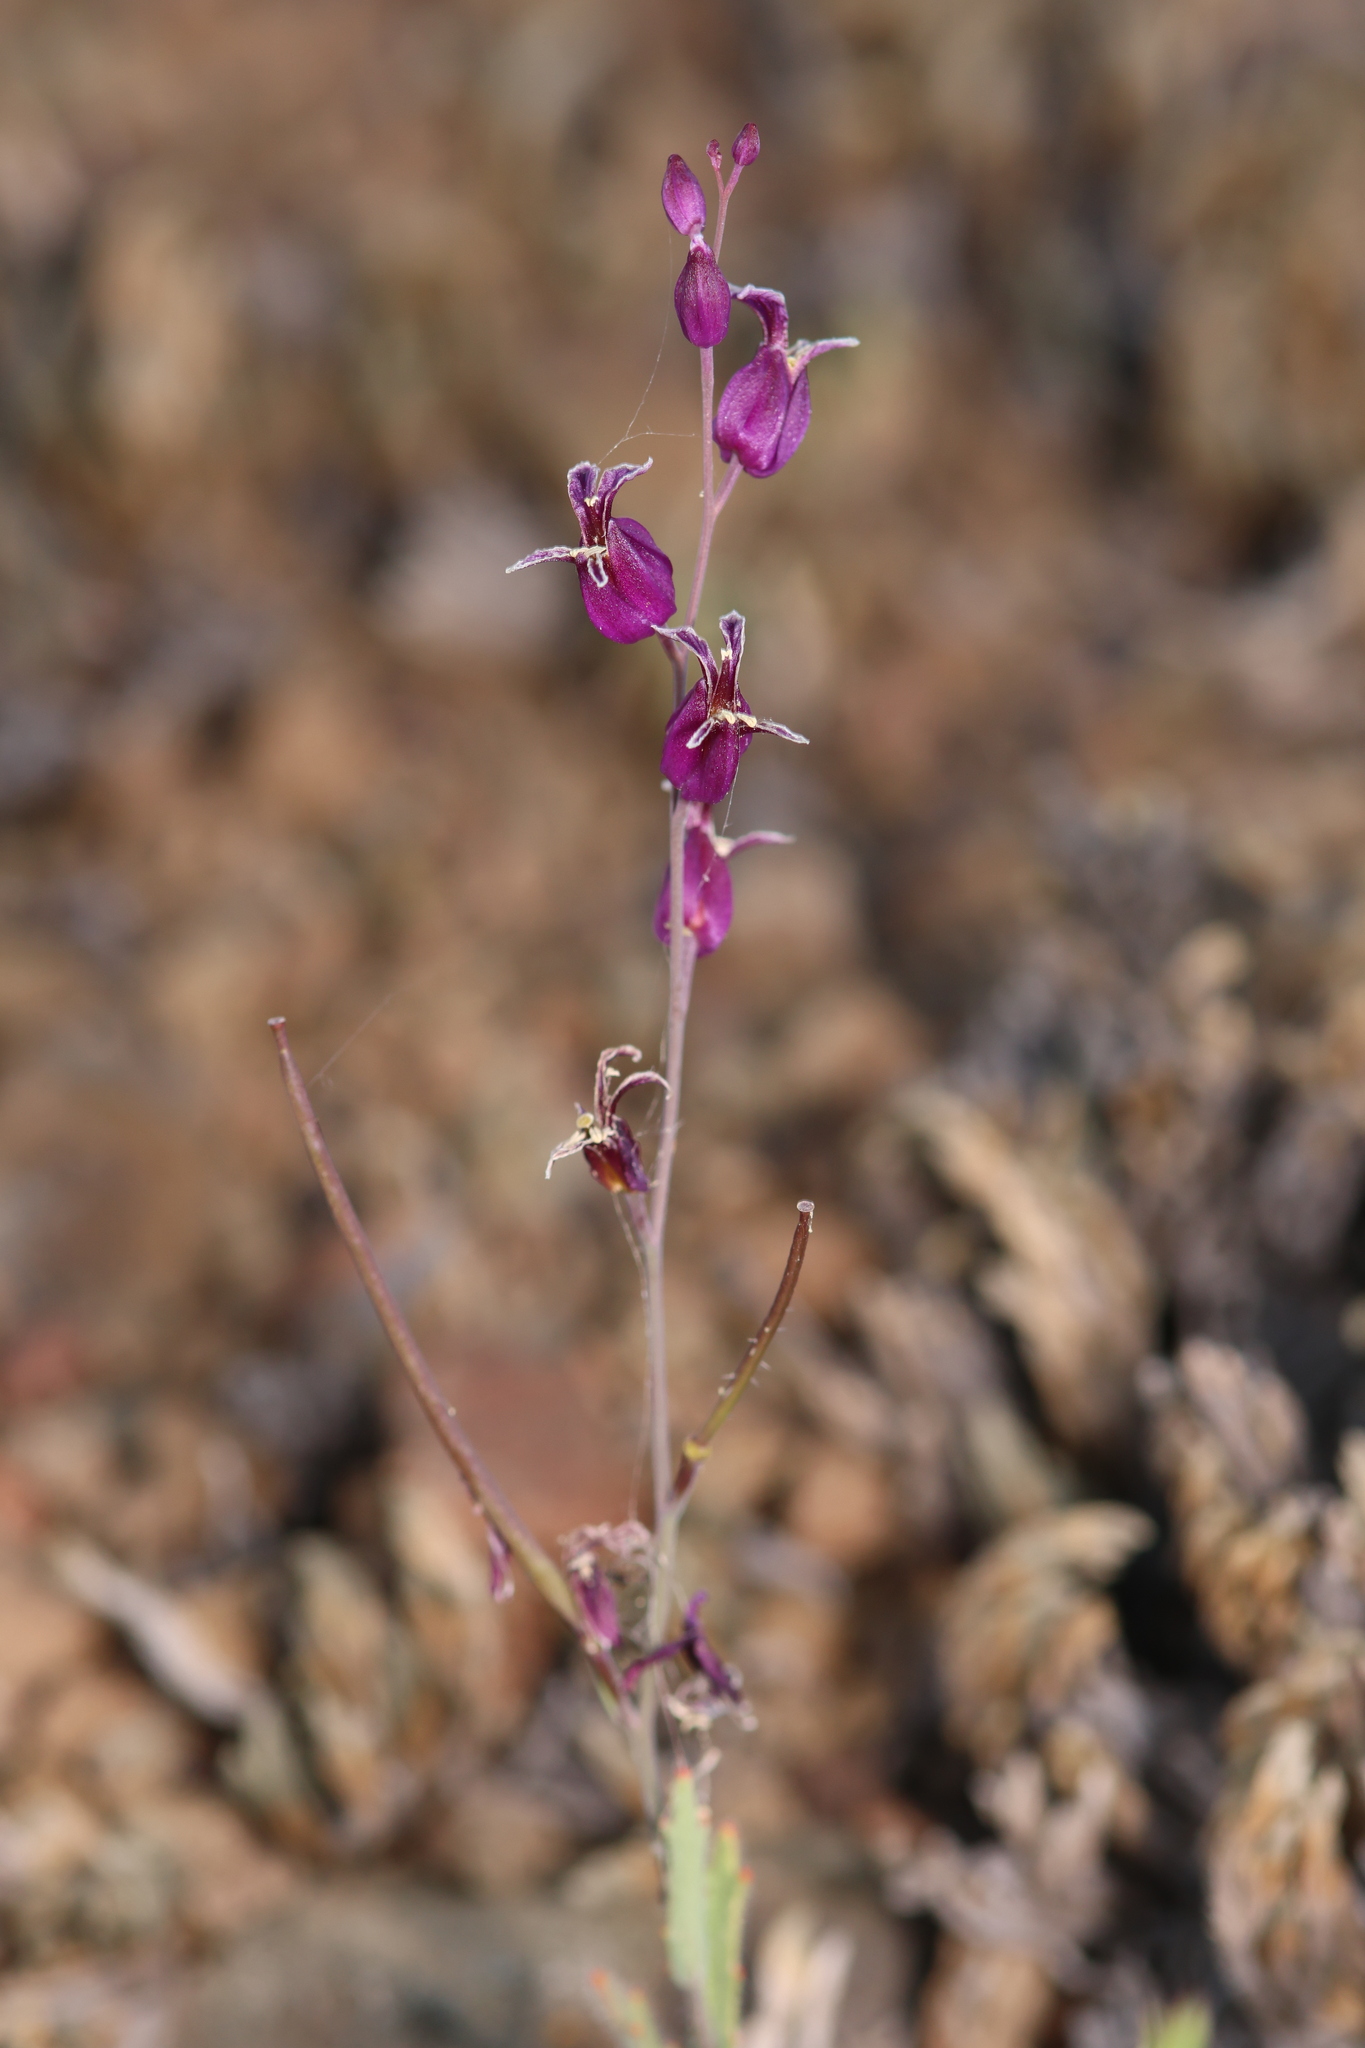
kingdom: Plantae
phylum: Tracheophyta
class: Magnoliopsida
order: Brassicales
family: Brassicaceae
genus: Streptanthus
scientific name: Streptanthus glandulosus
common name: Jewel-flower
